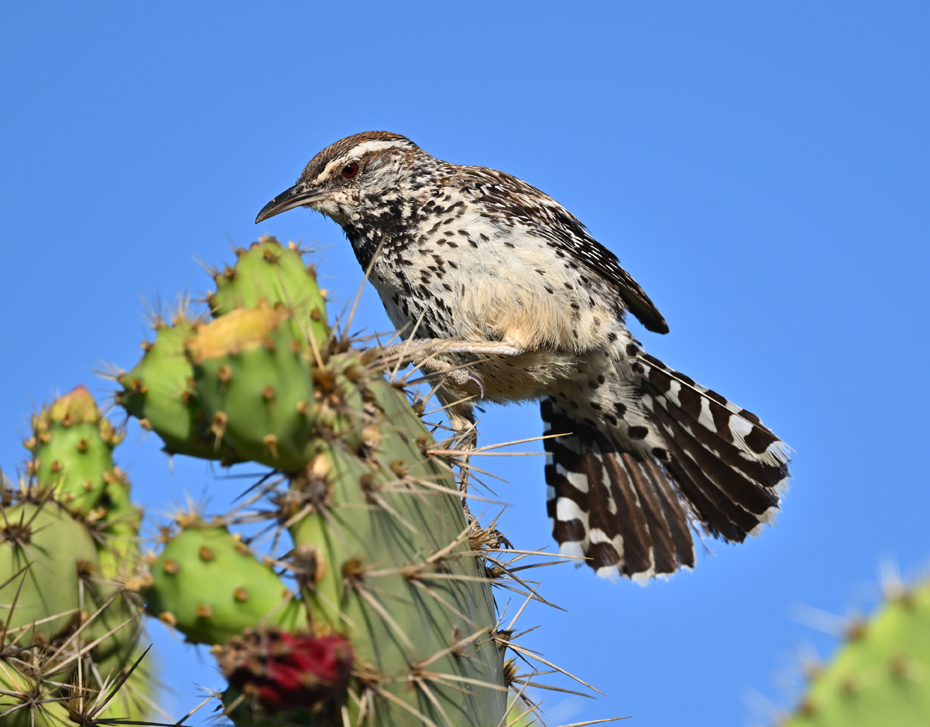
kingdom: Animalia
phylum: Chordata
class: Aves
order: Passeriformes
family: Troglodytidae
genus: Campylorhynchus
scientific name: Campylorhynchus brunneicapillus
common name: Cactus wren
